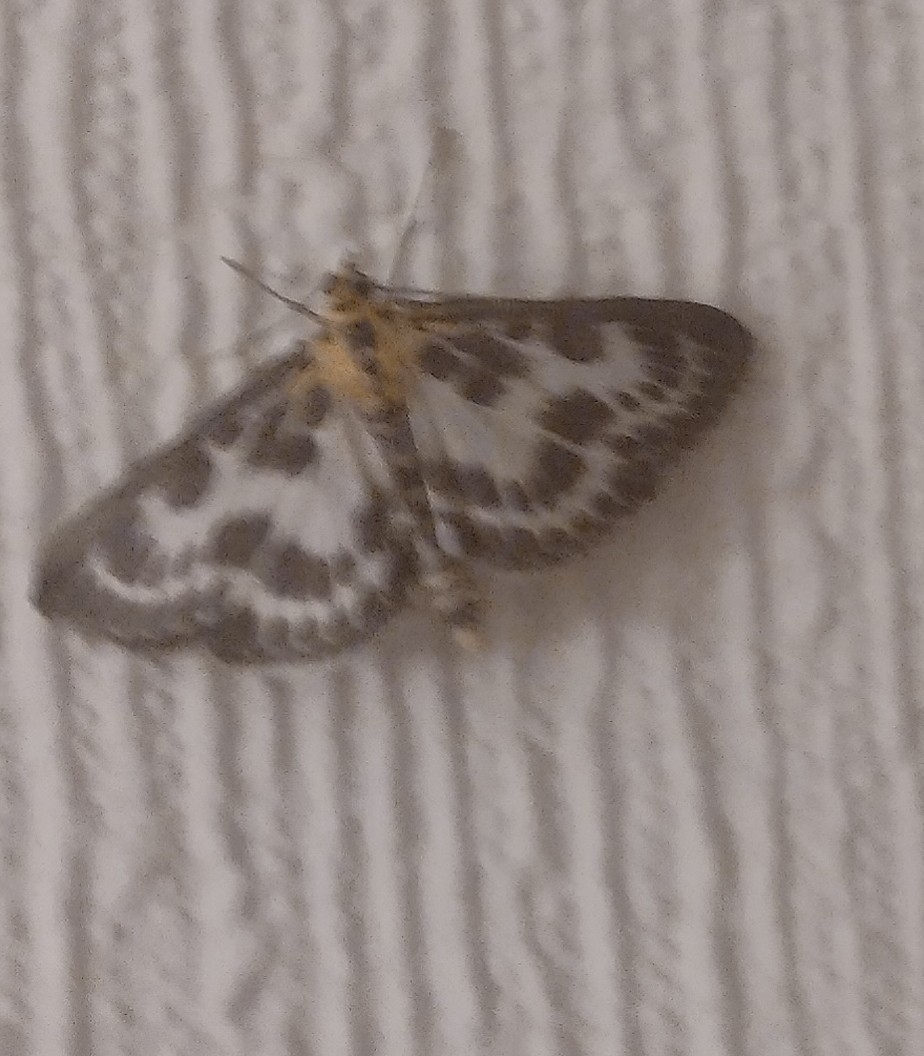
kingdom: Animalia
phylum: Arthropoda
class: Insecta
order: Lepidoptera
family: Crambidae
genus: Anania
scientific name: Anania hortulata
